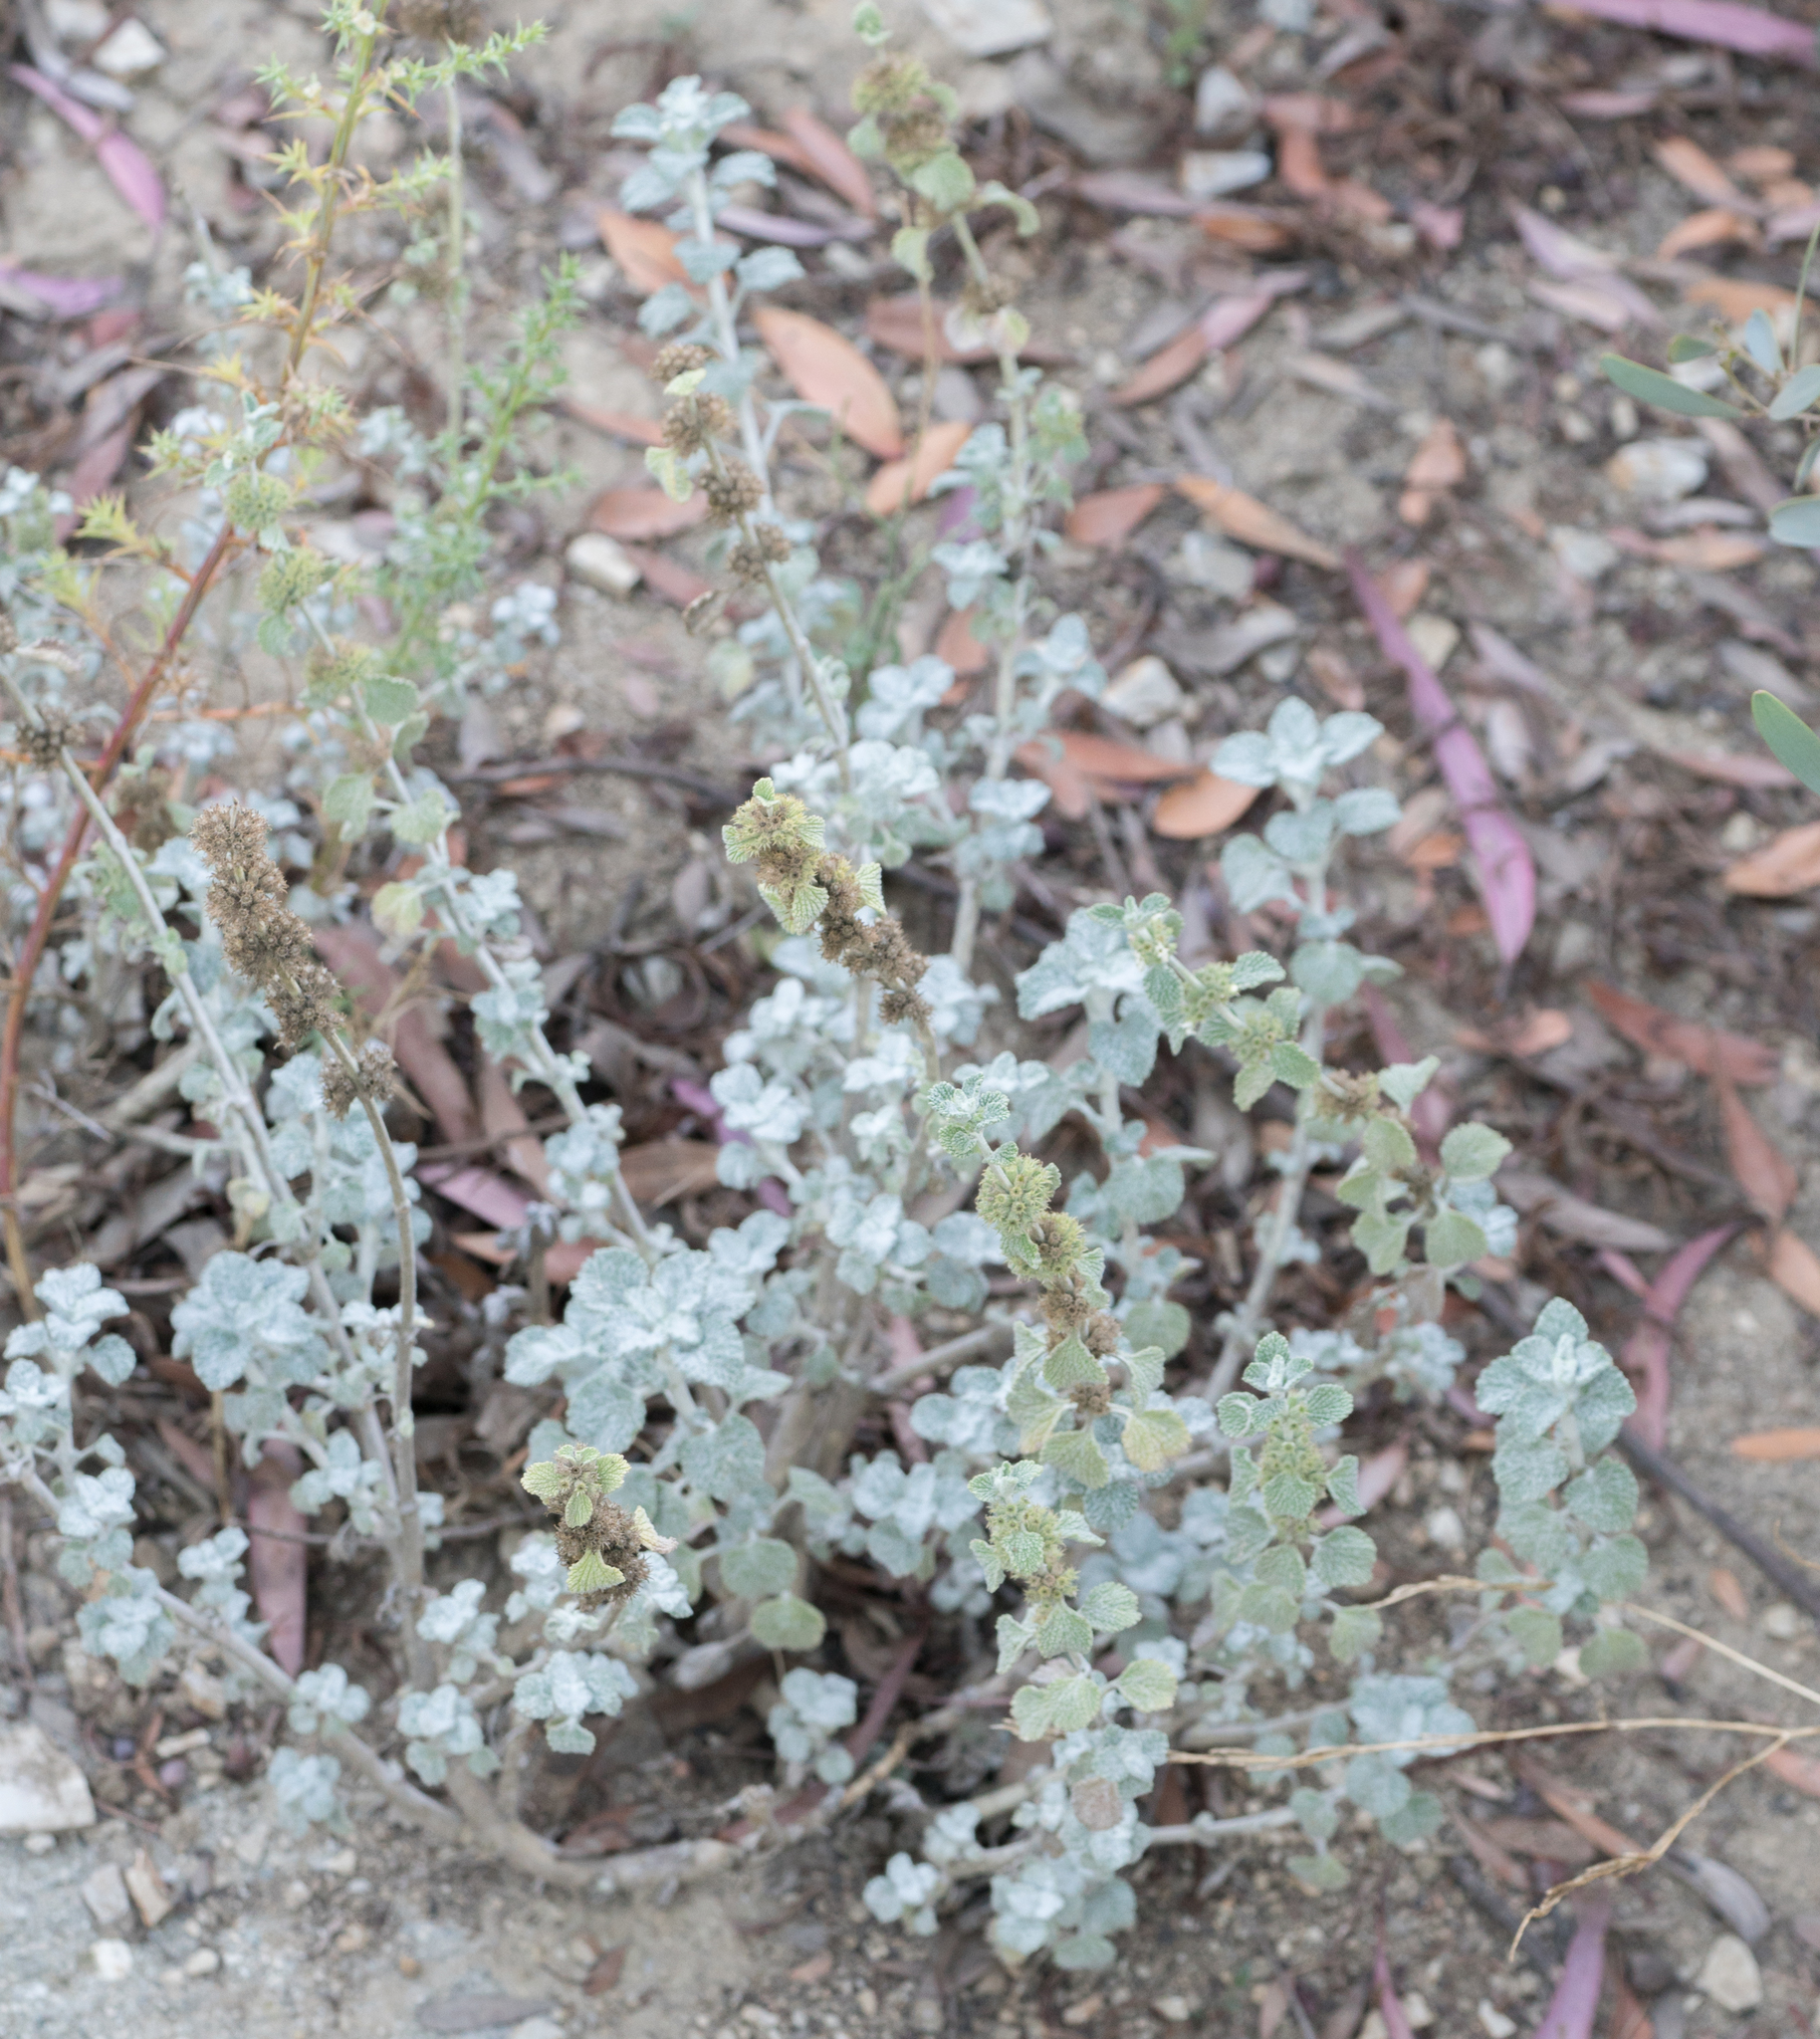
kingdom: Plantae
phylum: Tracheophyta
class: Magnoliopsida
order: Lamiales
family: Lamiaceae
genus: Marrubium
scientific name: Marrubium vulgare
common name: Horehound
